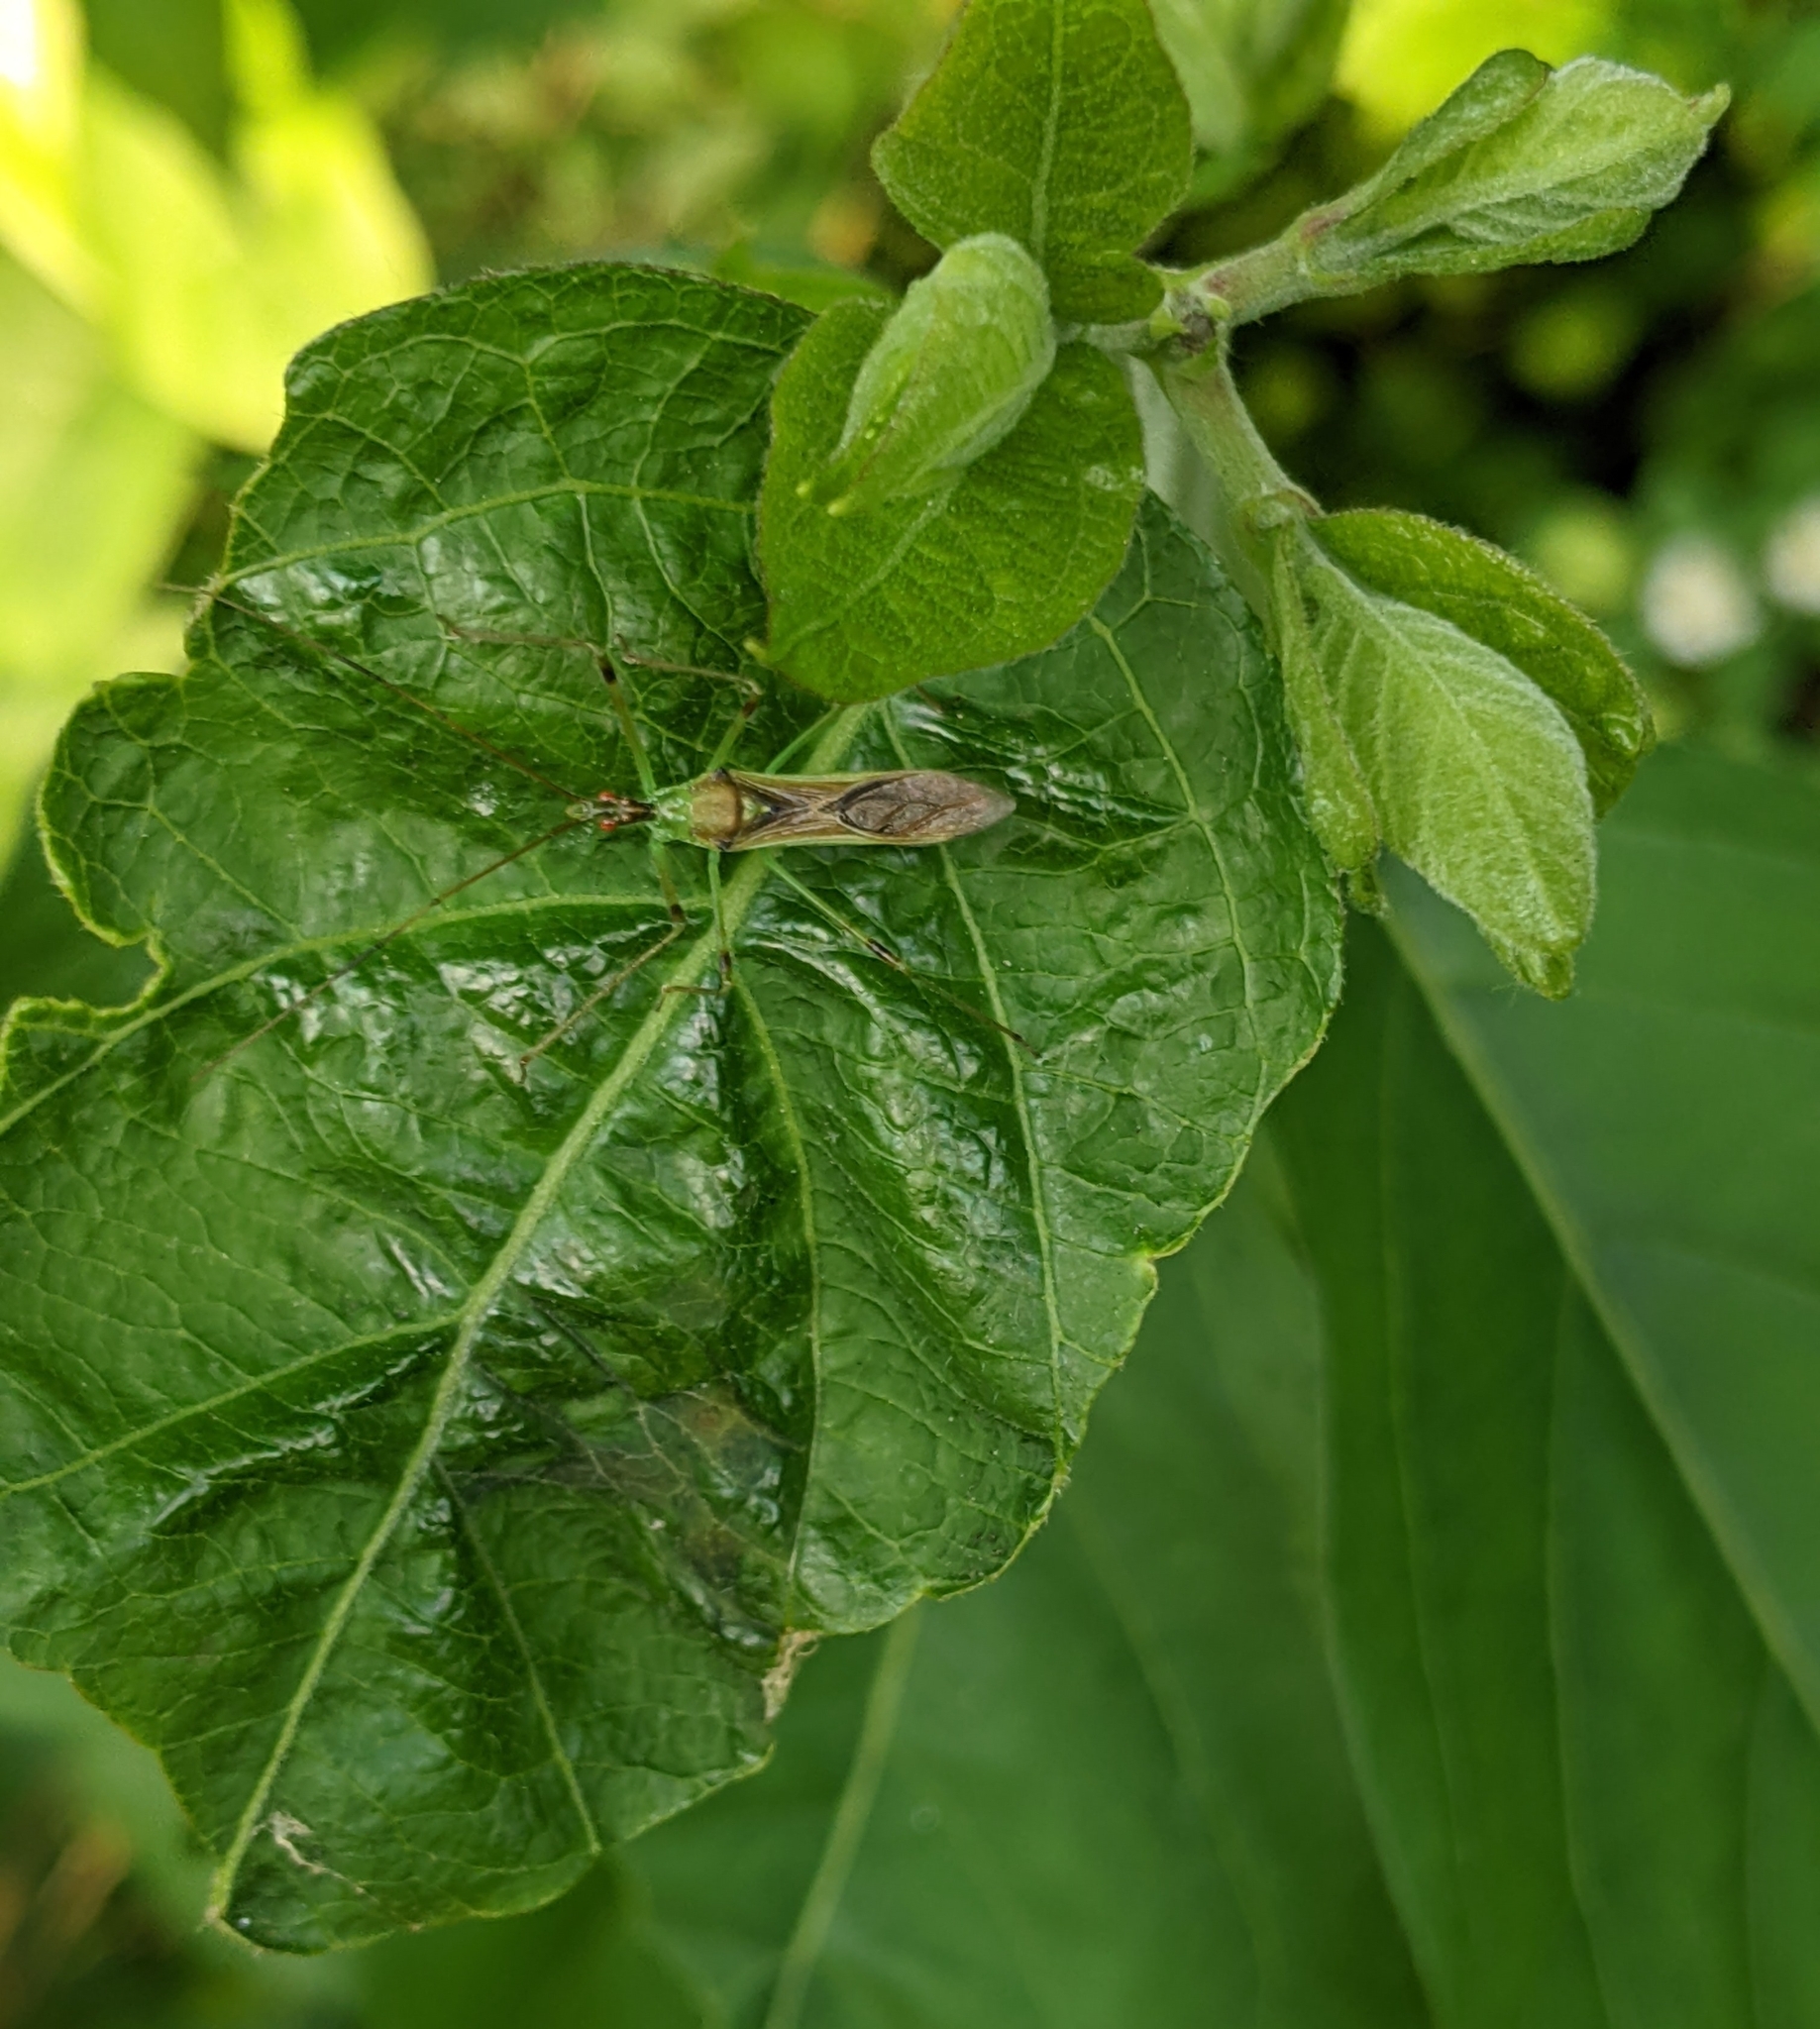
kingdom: Animalia
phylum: Arthropoda
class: Insecta
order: Hemiptera
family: Reduviidae
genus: Zelus
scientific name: Zelus luridus
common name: Pale green assassin bug
